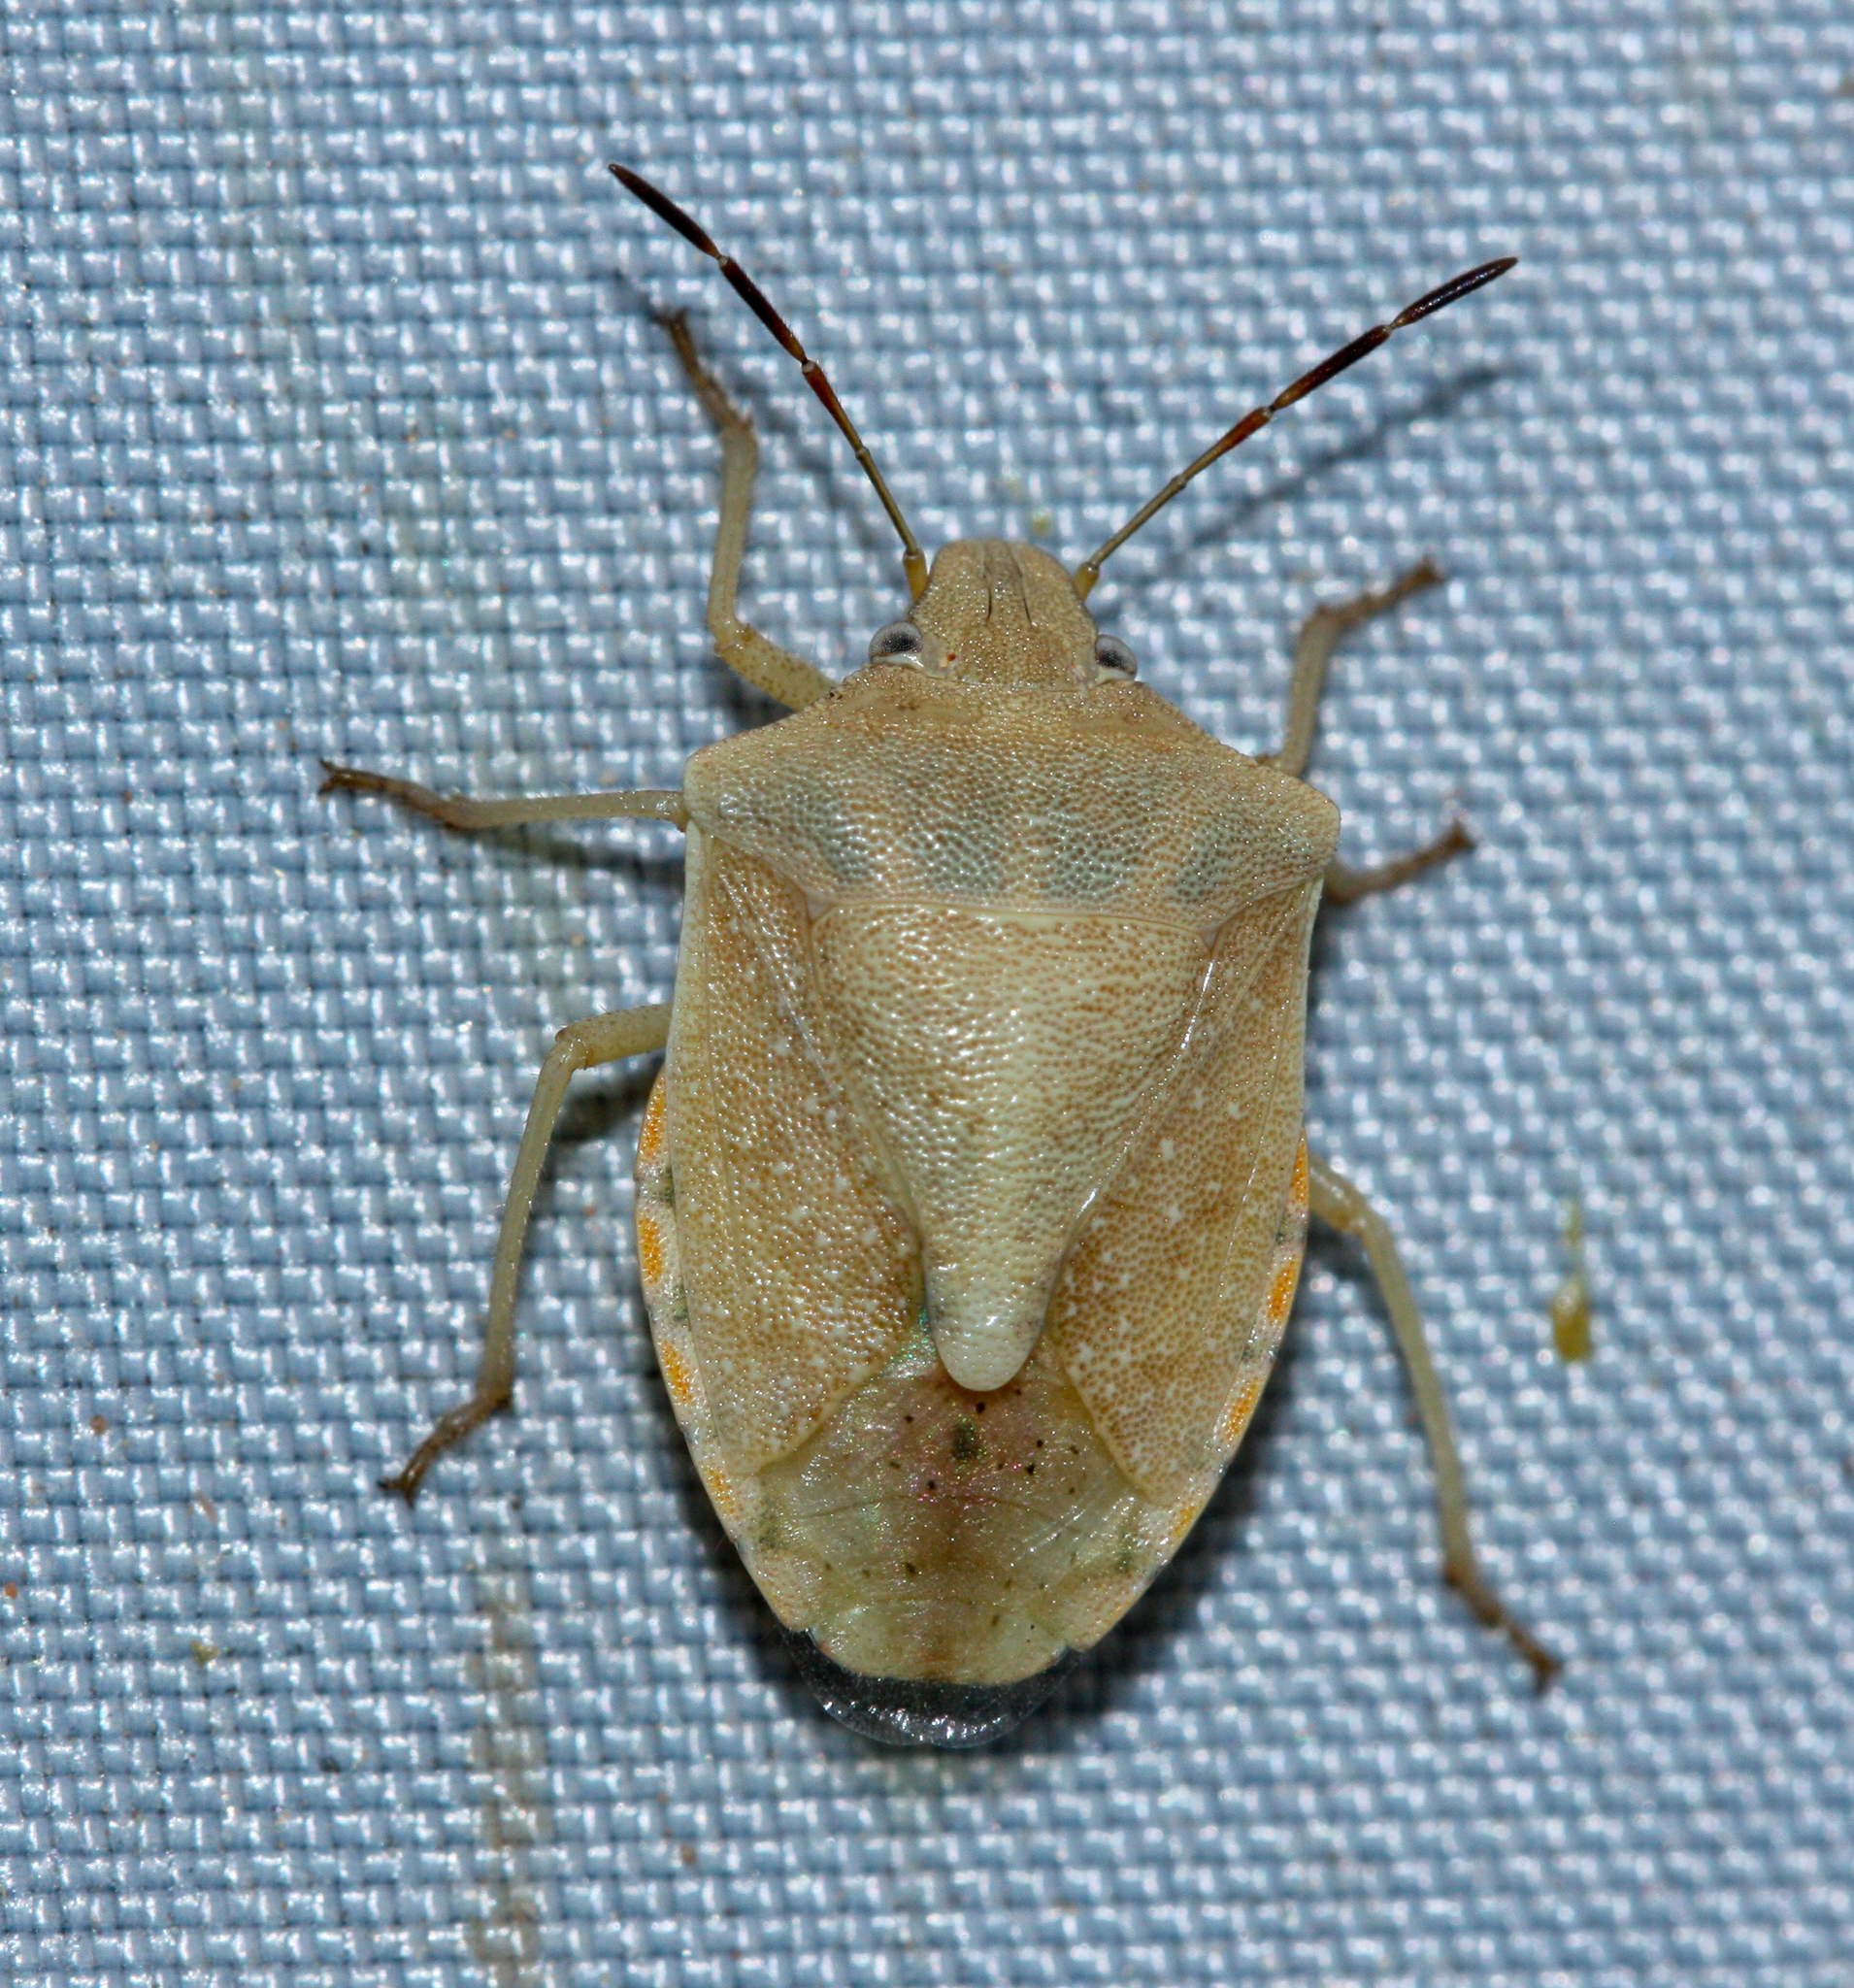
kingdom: Animalia
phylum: Arthropoda
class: Insecta
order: Hemiptera
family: Pentatomidae
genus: Thyanta
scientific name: Thyanta accerra
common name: Stink bug
